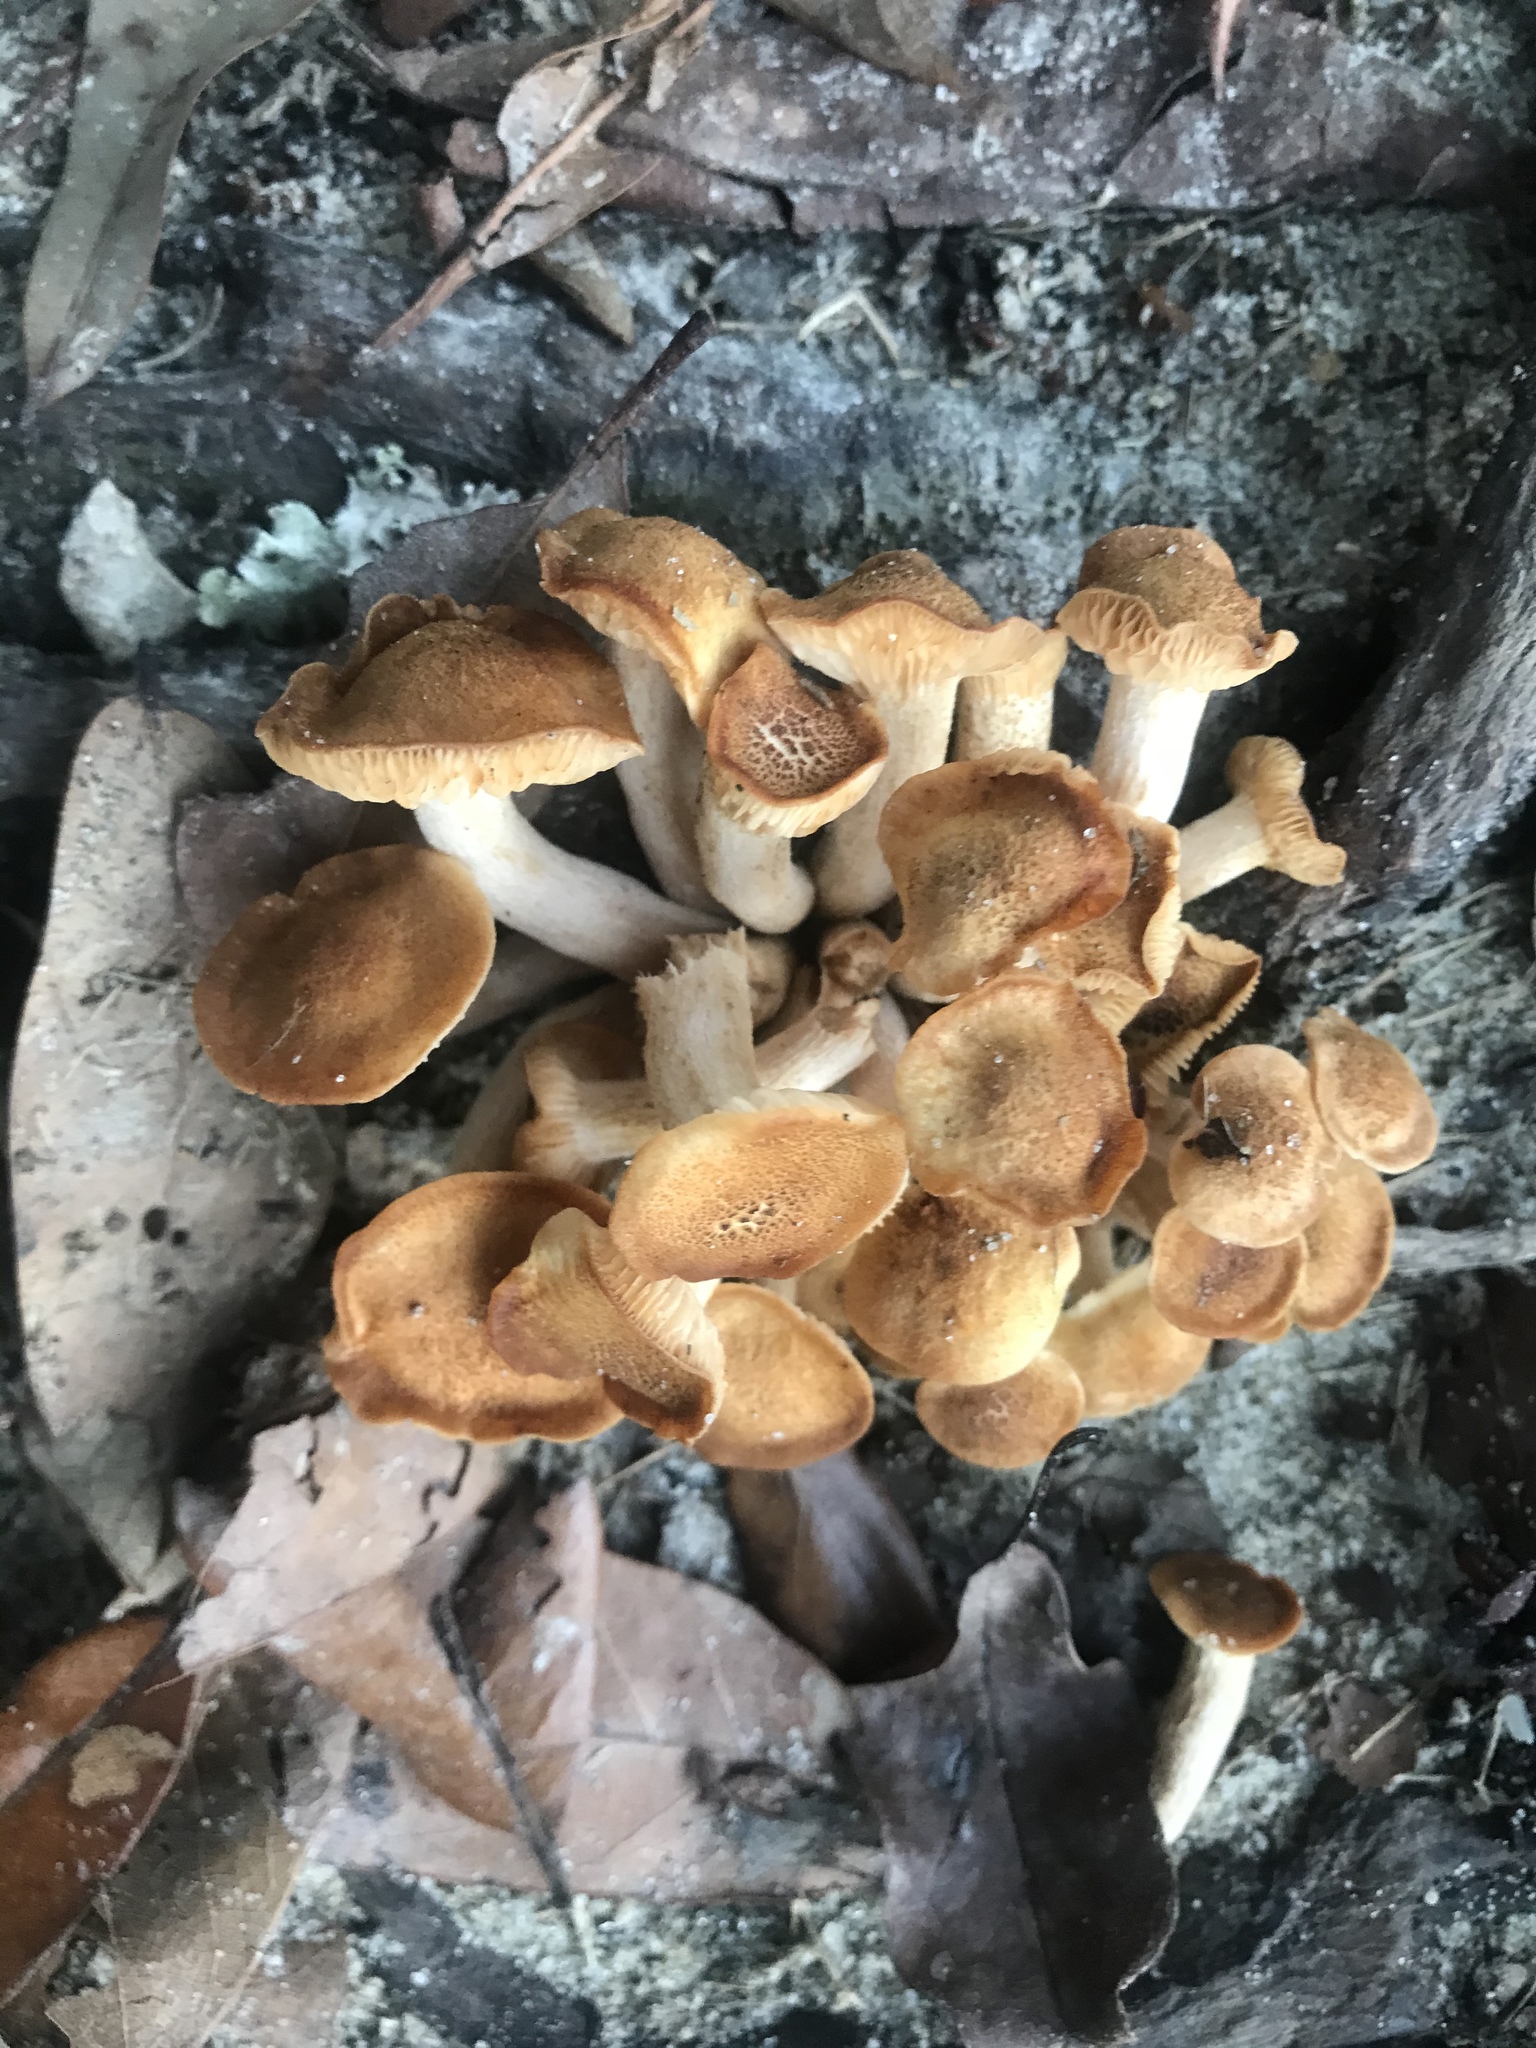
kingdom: Fungi
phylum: Basidiomycota
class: Agaricomycetes
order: Agaricales
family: Physalacriaceae
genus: Desarmillaria
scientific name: Desarmillaria caespitosa
